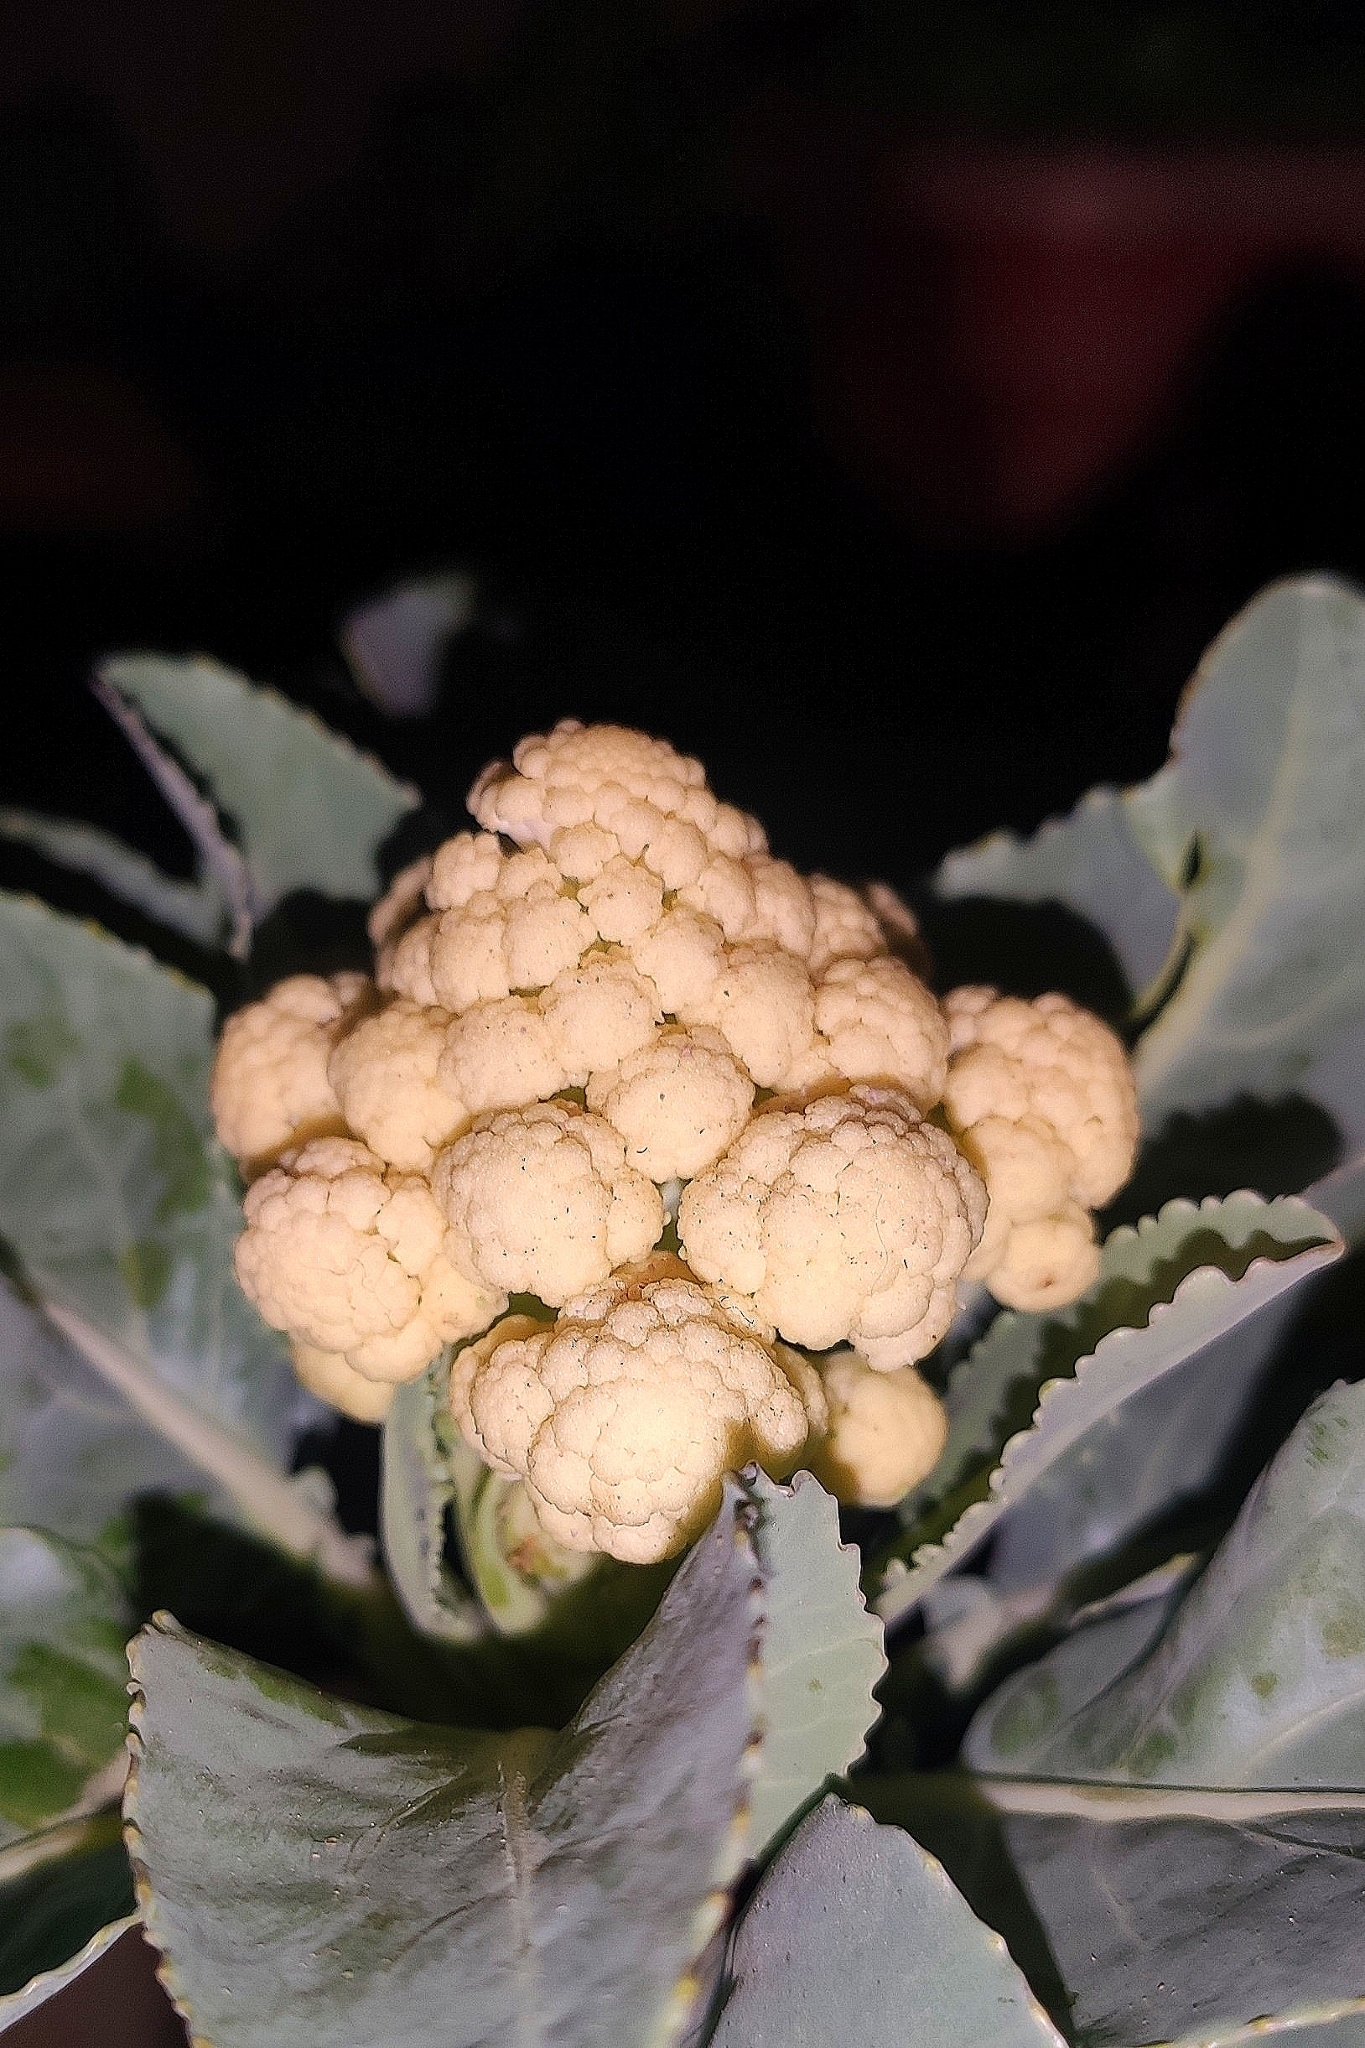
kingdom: Plantae
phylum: Tracheophyta
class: Magnoliopsida
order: Brassicales
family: Brassicaceae
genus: Brassica
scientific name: Brassica cretica
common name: Mustard
